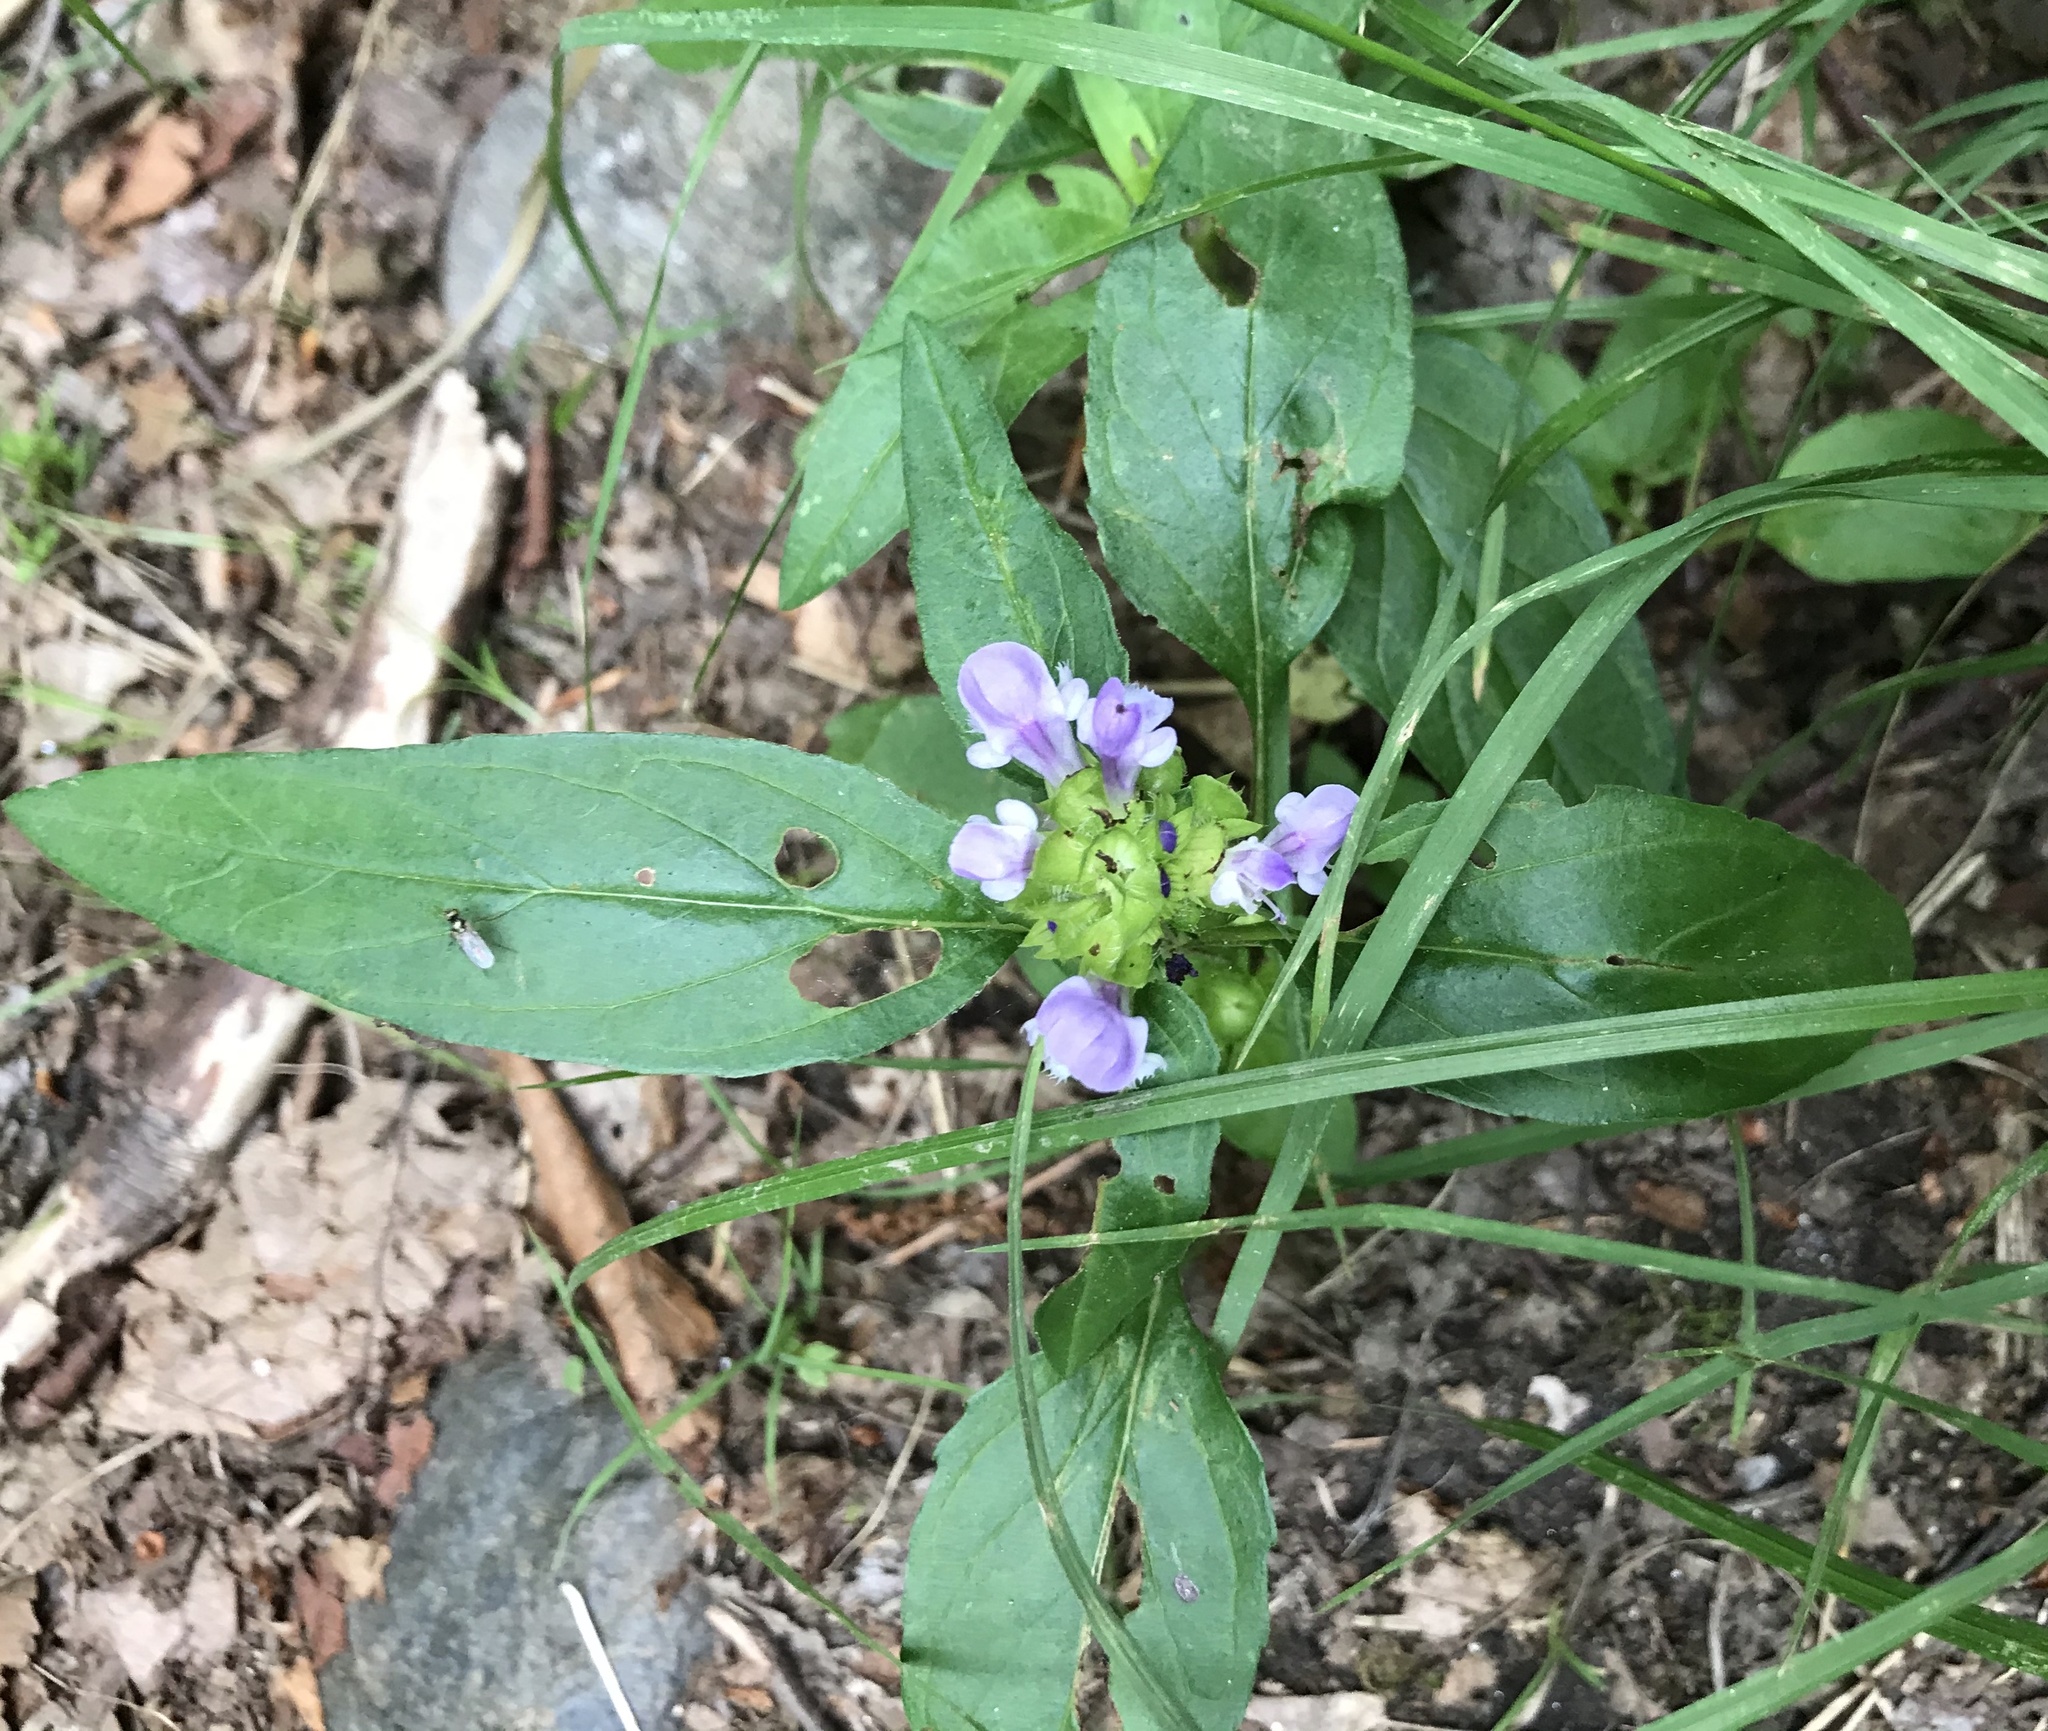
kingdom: Plantae
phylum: Tracheophyta
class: Magnoliopsida
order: Lamiales
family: Lamiaceae
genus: Prunella
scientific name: Prunella vulgaris
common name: Heal-all
